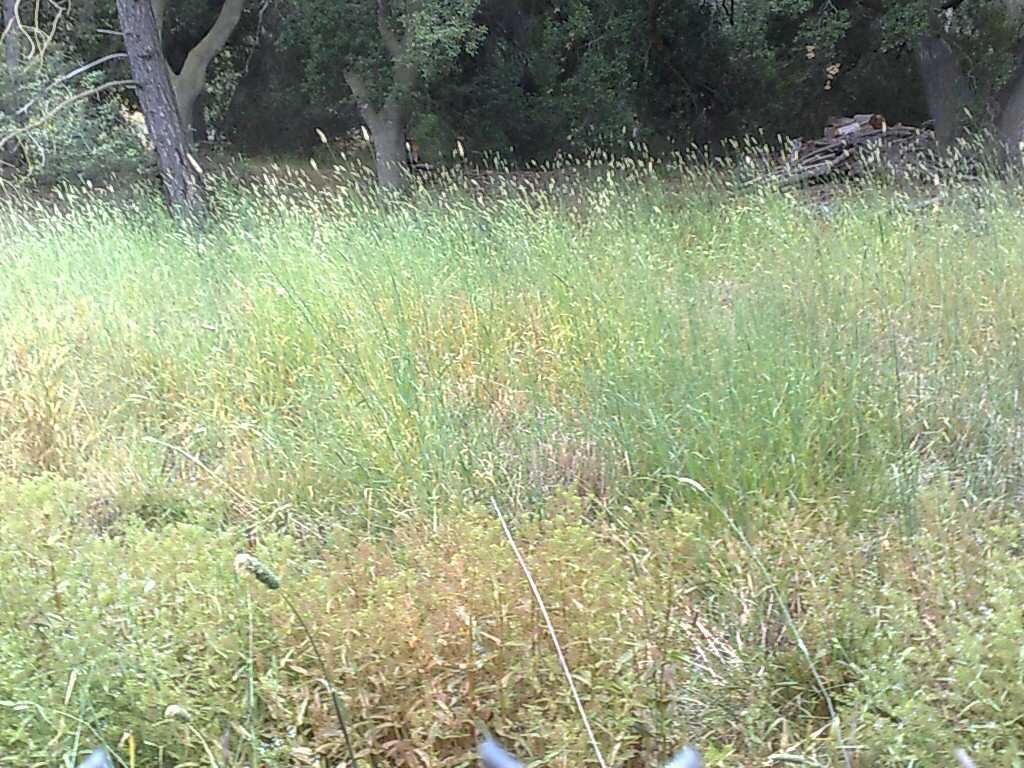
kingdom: Plantae
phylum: Tracheophyta
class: Liliopsida
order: Poales
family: Poaceae
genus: Phalaris
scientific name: Phalaris aquatica
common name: Bulbous canary-grass
